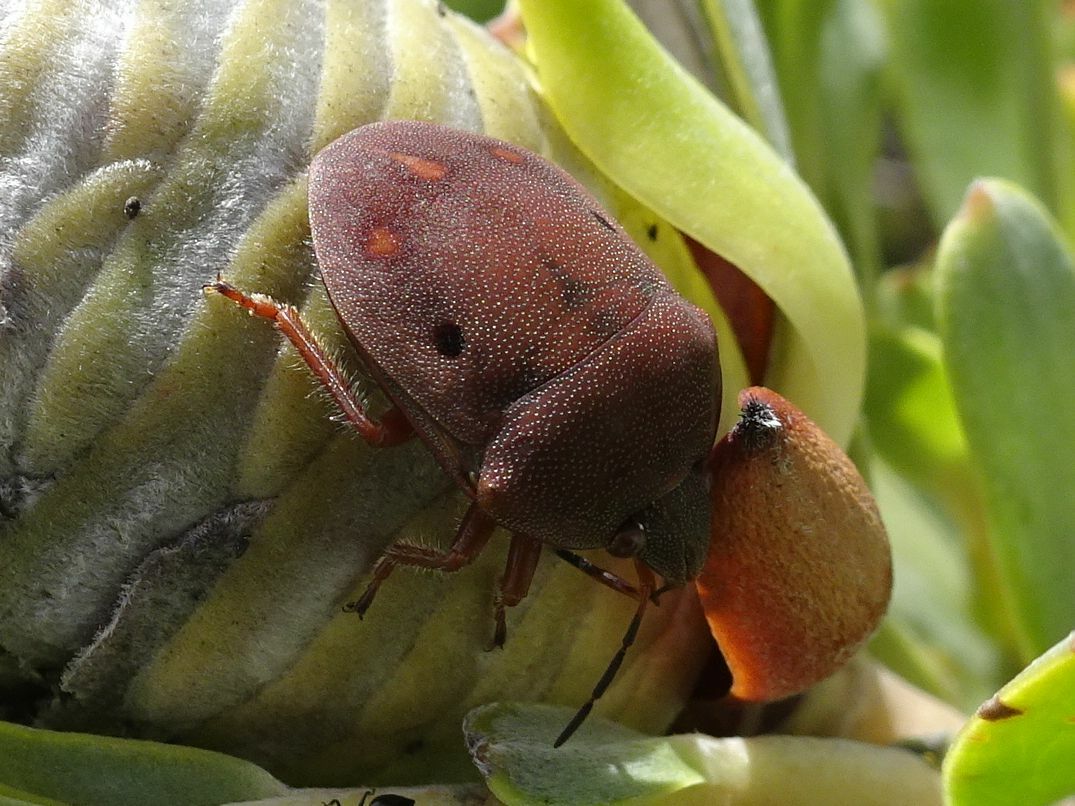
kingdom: Animalia
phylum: Arthropoda
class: Insecta
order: Hemiptera
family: Scutelleridae
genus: Solenosthedium
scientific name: Solenosthedium
